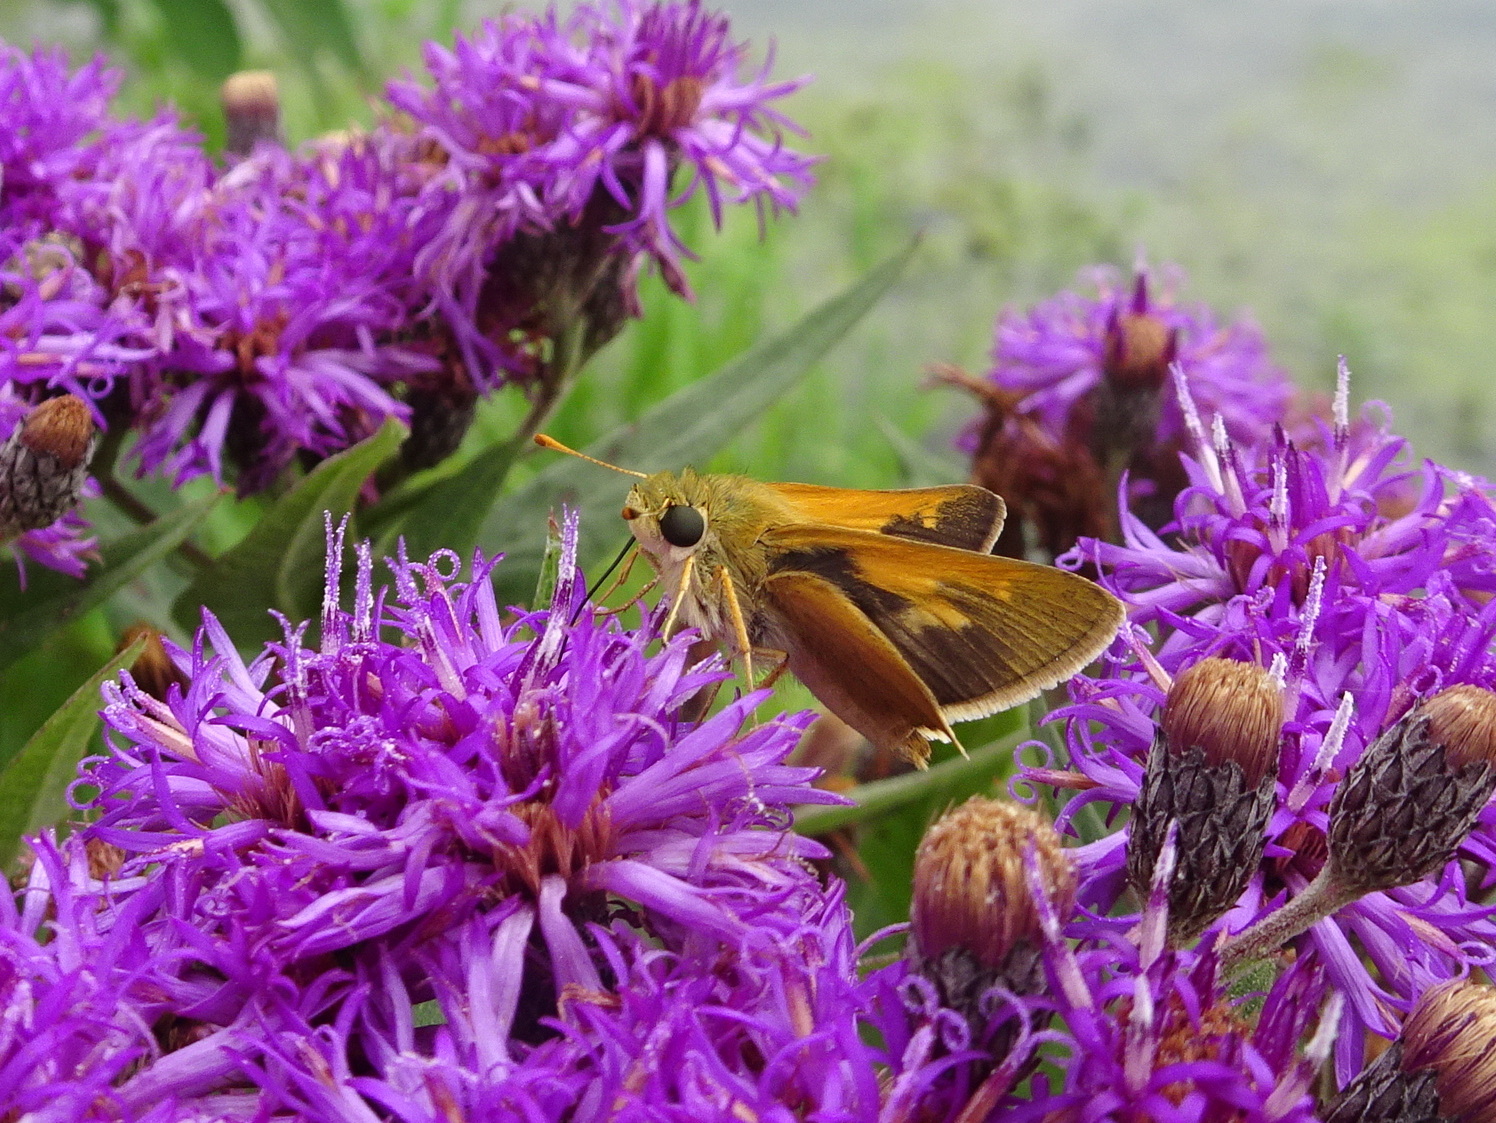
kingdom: Animalia
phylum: Arthropoda
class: Insecta
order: Lepidoptera
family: Hesperiidae
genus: Polites
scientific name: Polites themistocles
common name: Tawny-edged skipper
